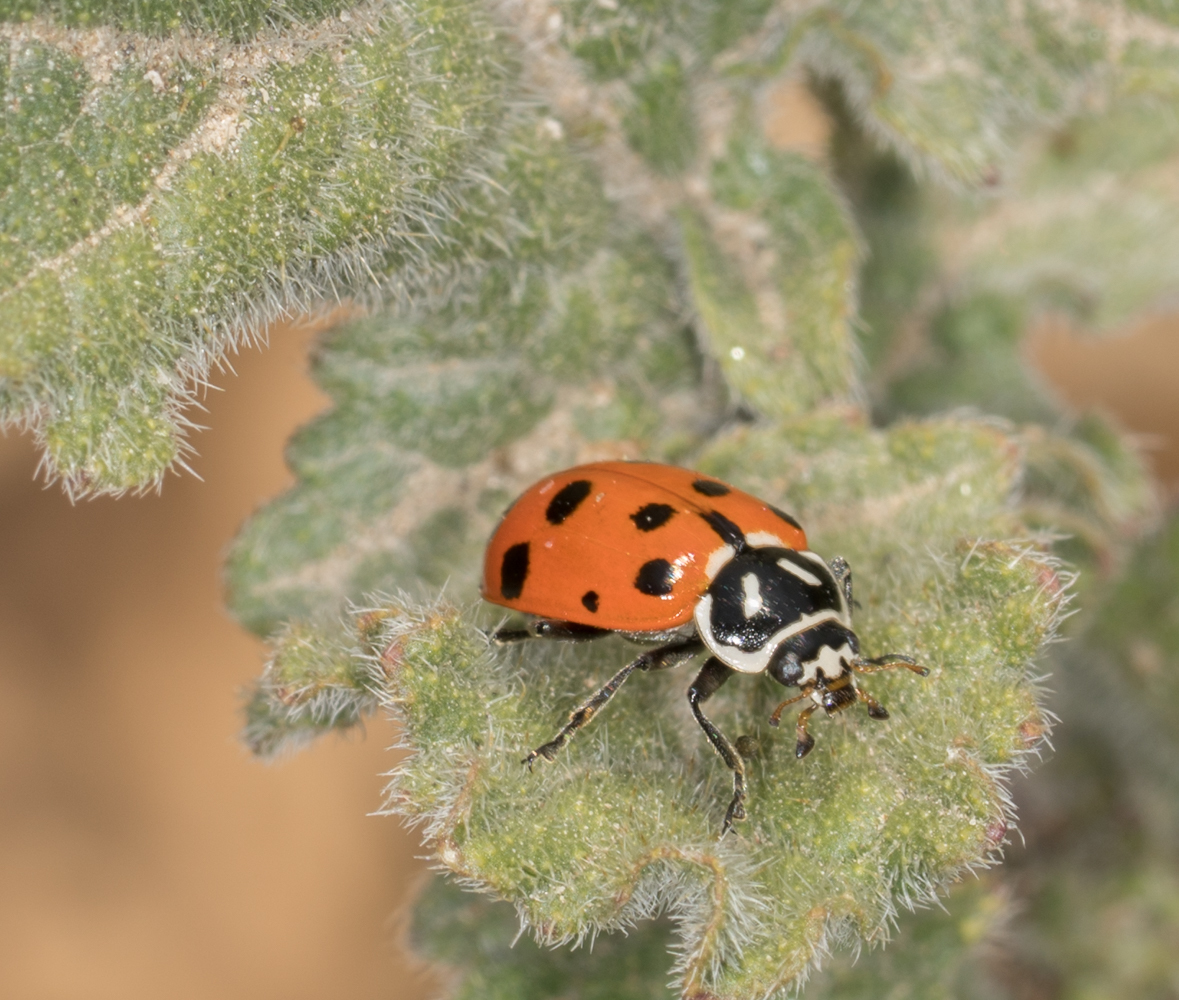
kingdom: Animalia
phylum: Arthropoda
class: Insecta
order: Coleoptera
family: Coccinellidae
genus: Hippodamia
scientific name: Hippodamia convergens
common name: Convergent lady beetle
